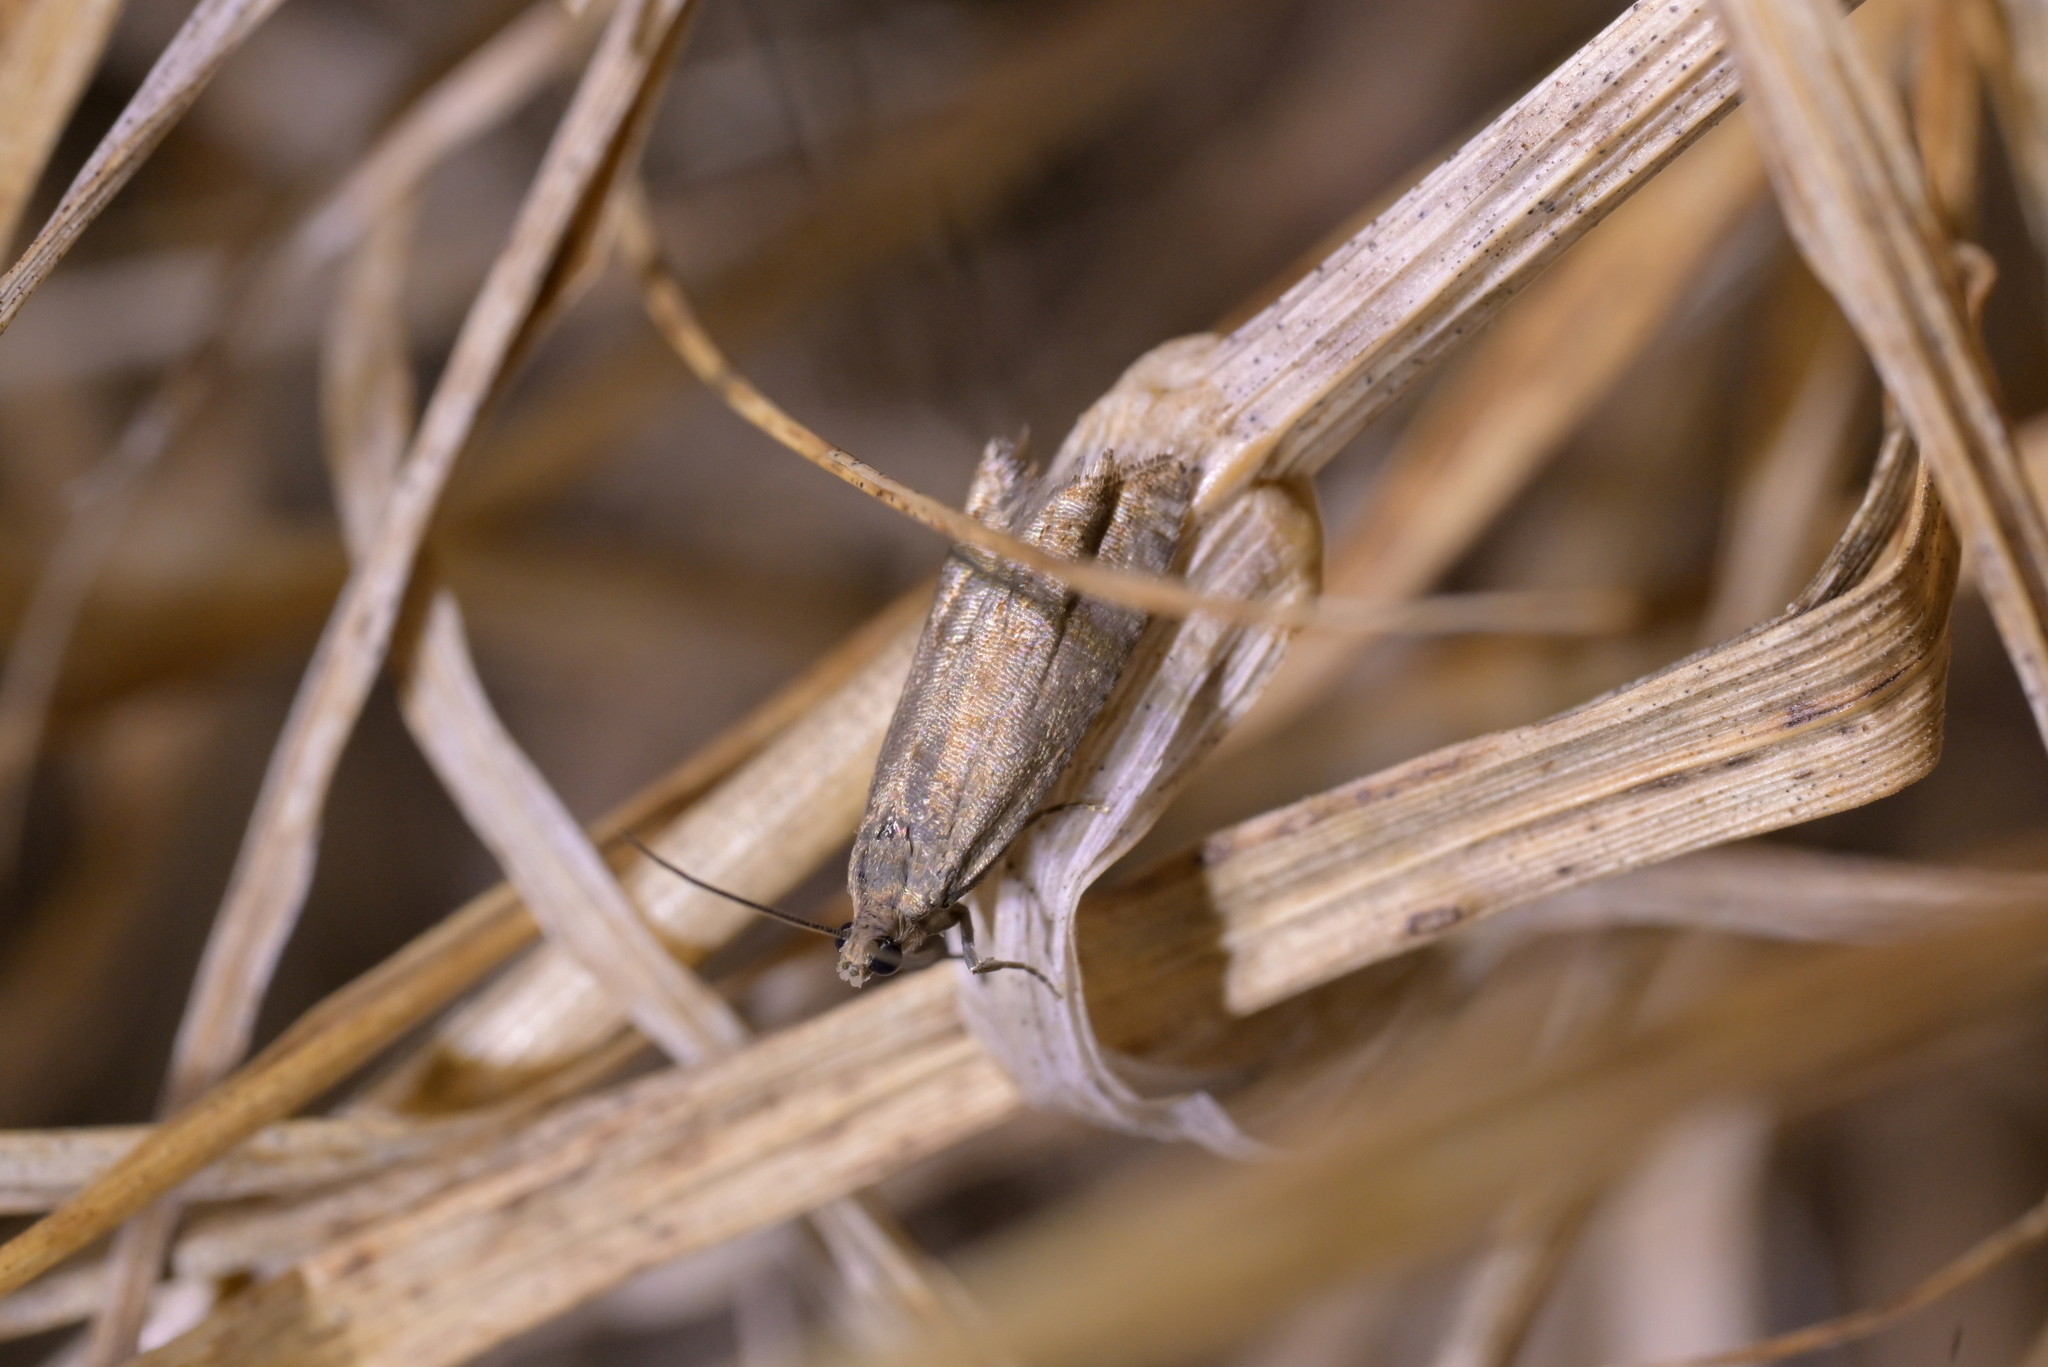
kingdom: Animalia
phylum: Arthropoda
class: Insecta
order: Lepidoptera
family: Tortricidae
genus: Cydia
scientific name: Cydia succedana
